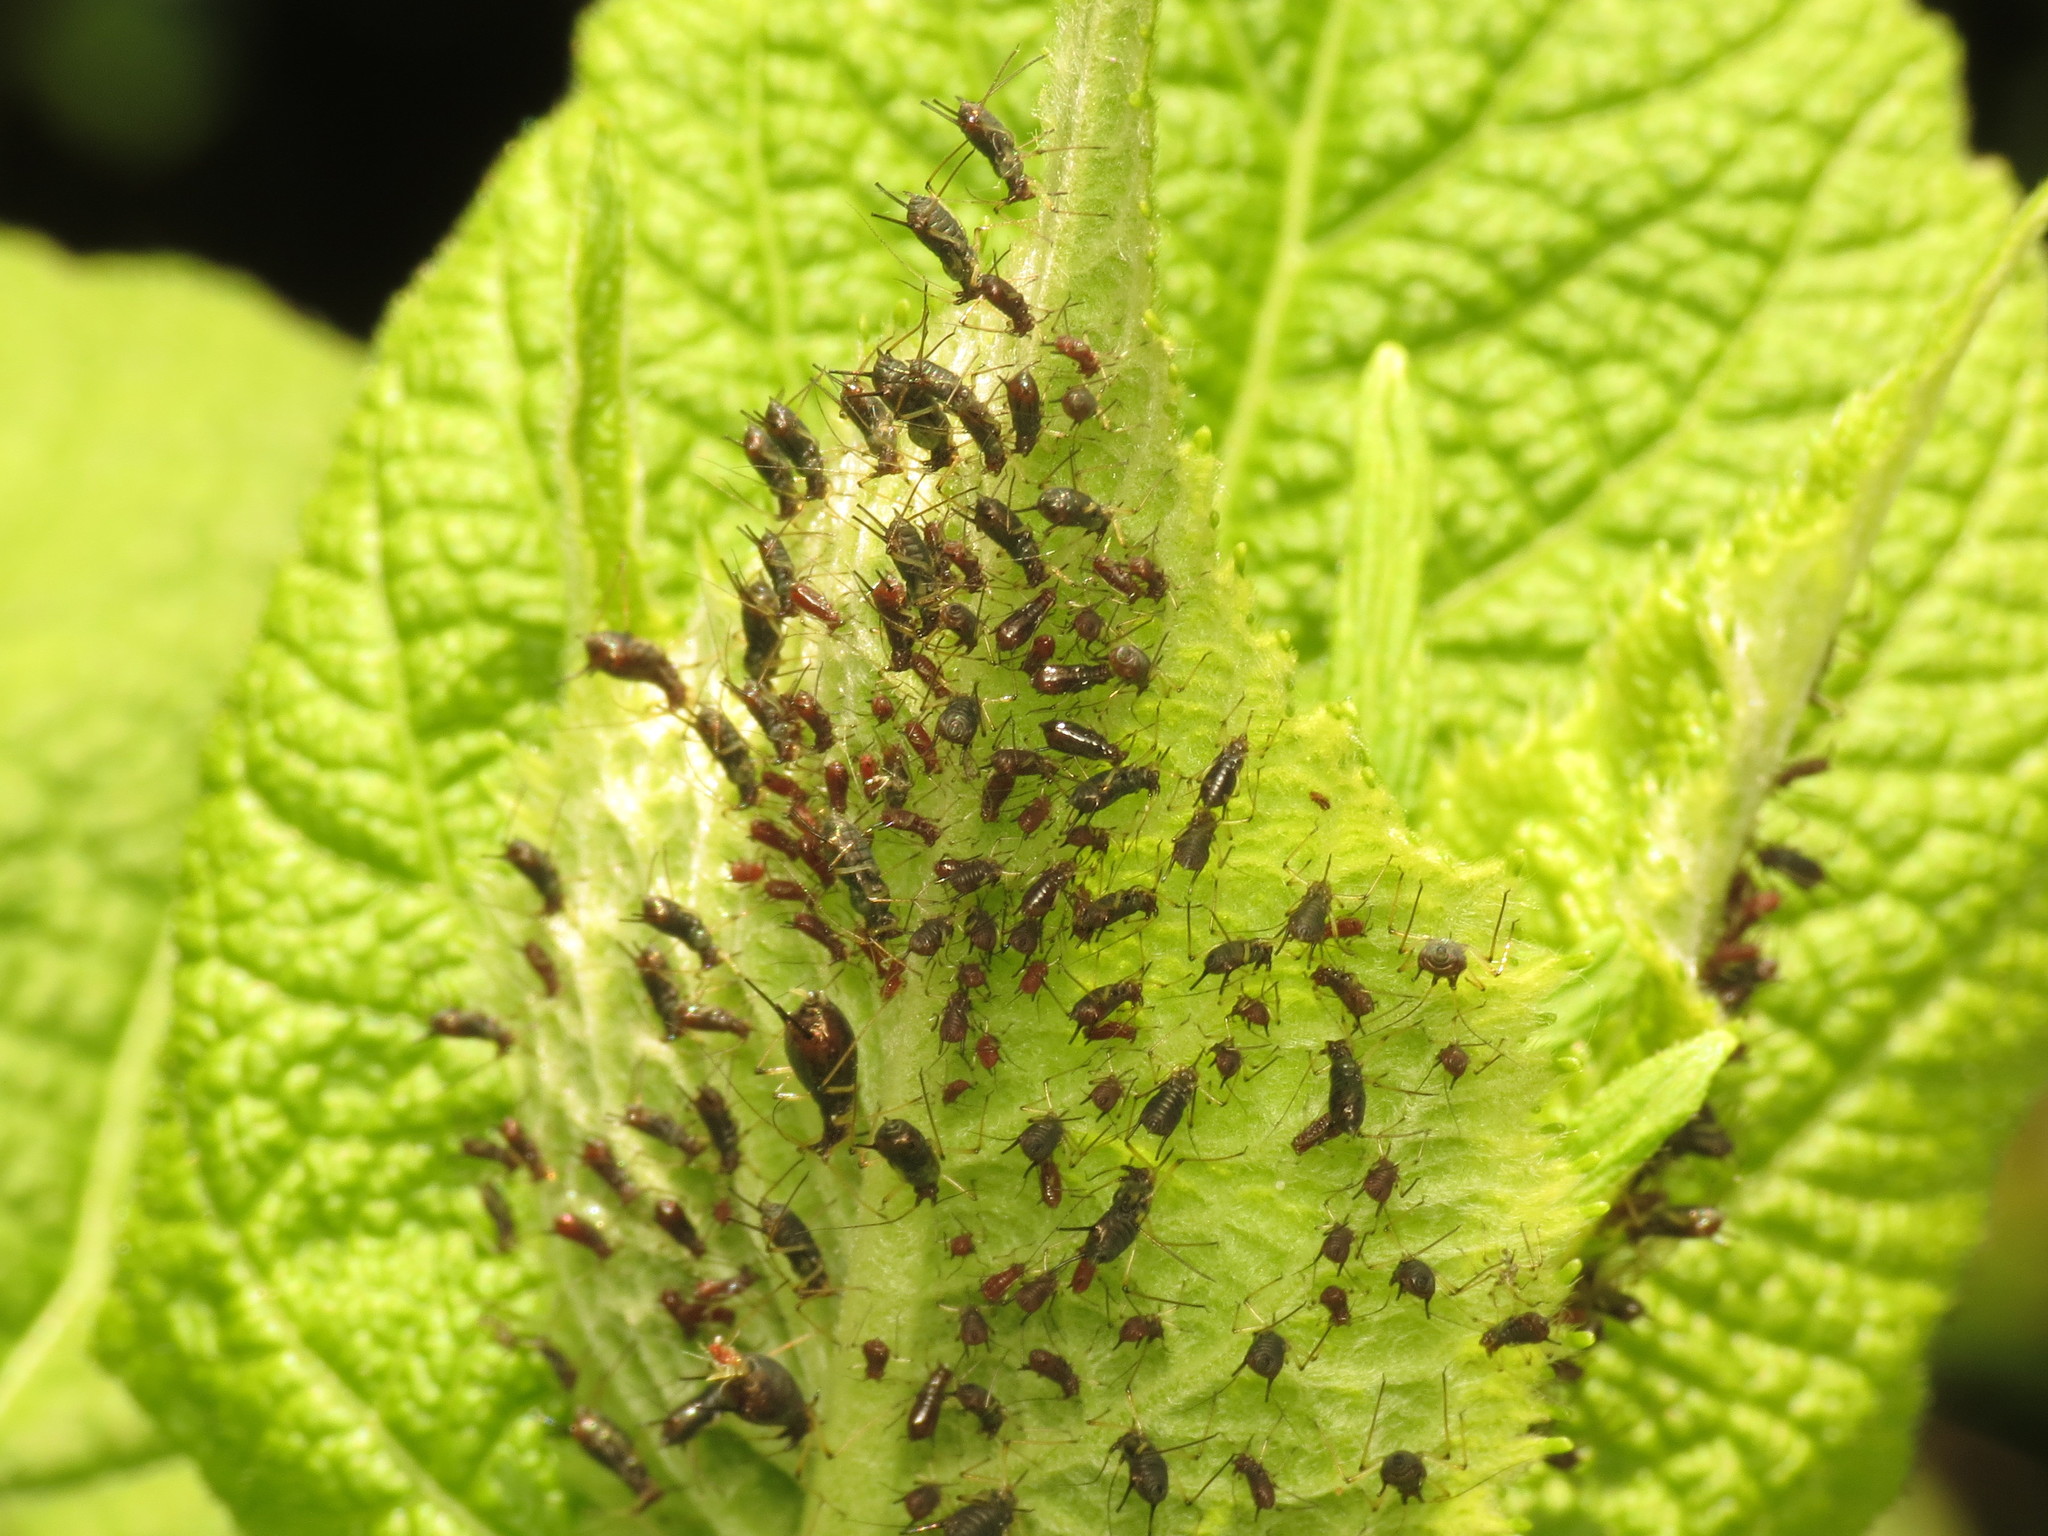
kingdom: Animalia
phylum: Arthropoda
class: Insecta
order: Hemiptera
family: Aphididae
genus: Uroleucon
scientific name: Uroleucon telekiae
